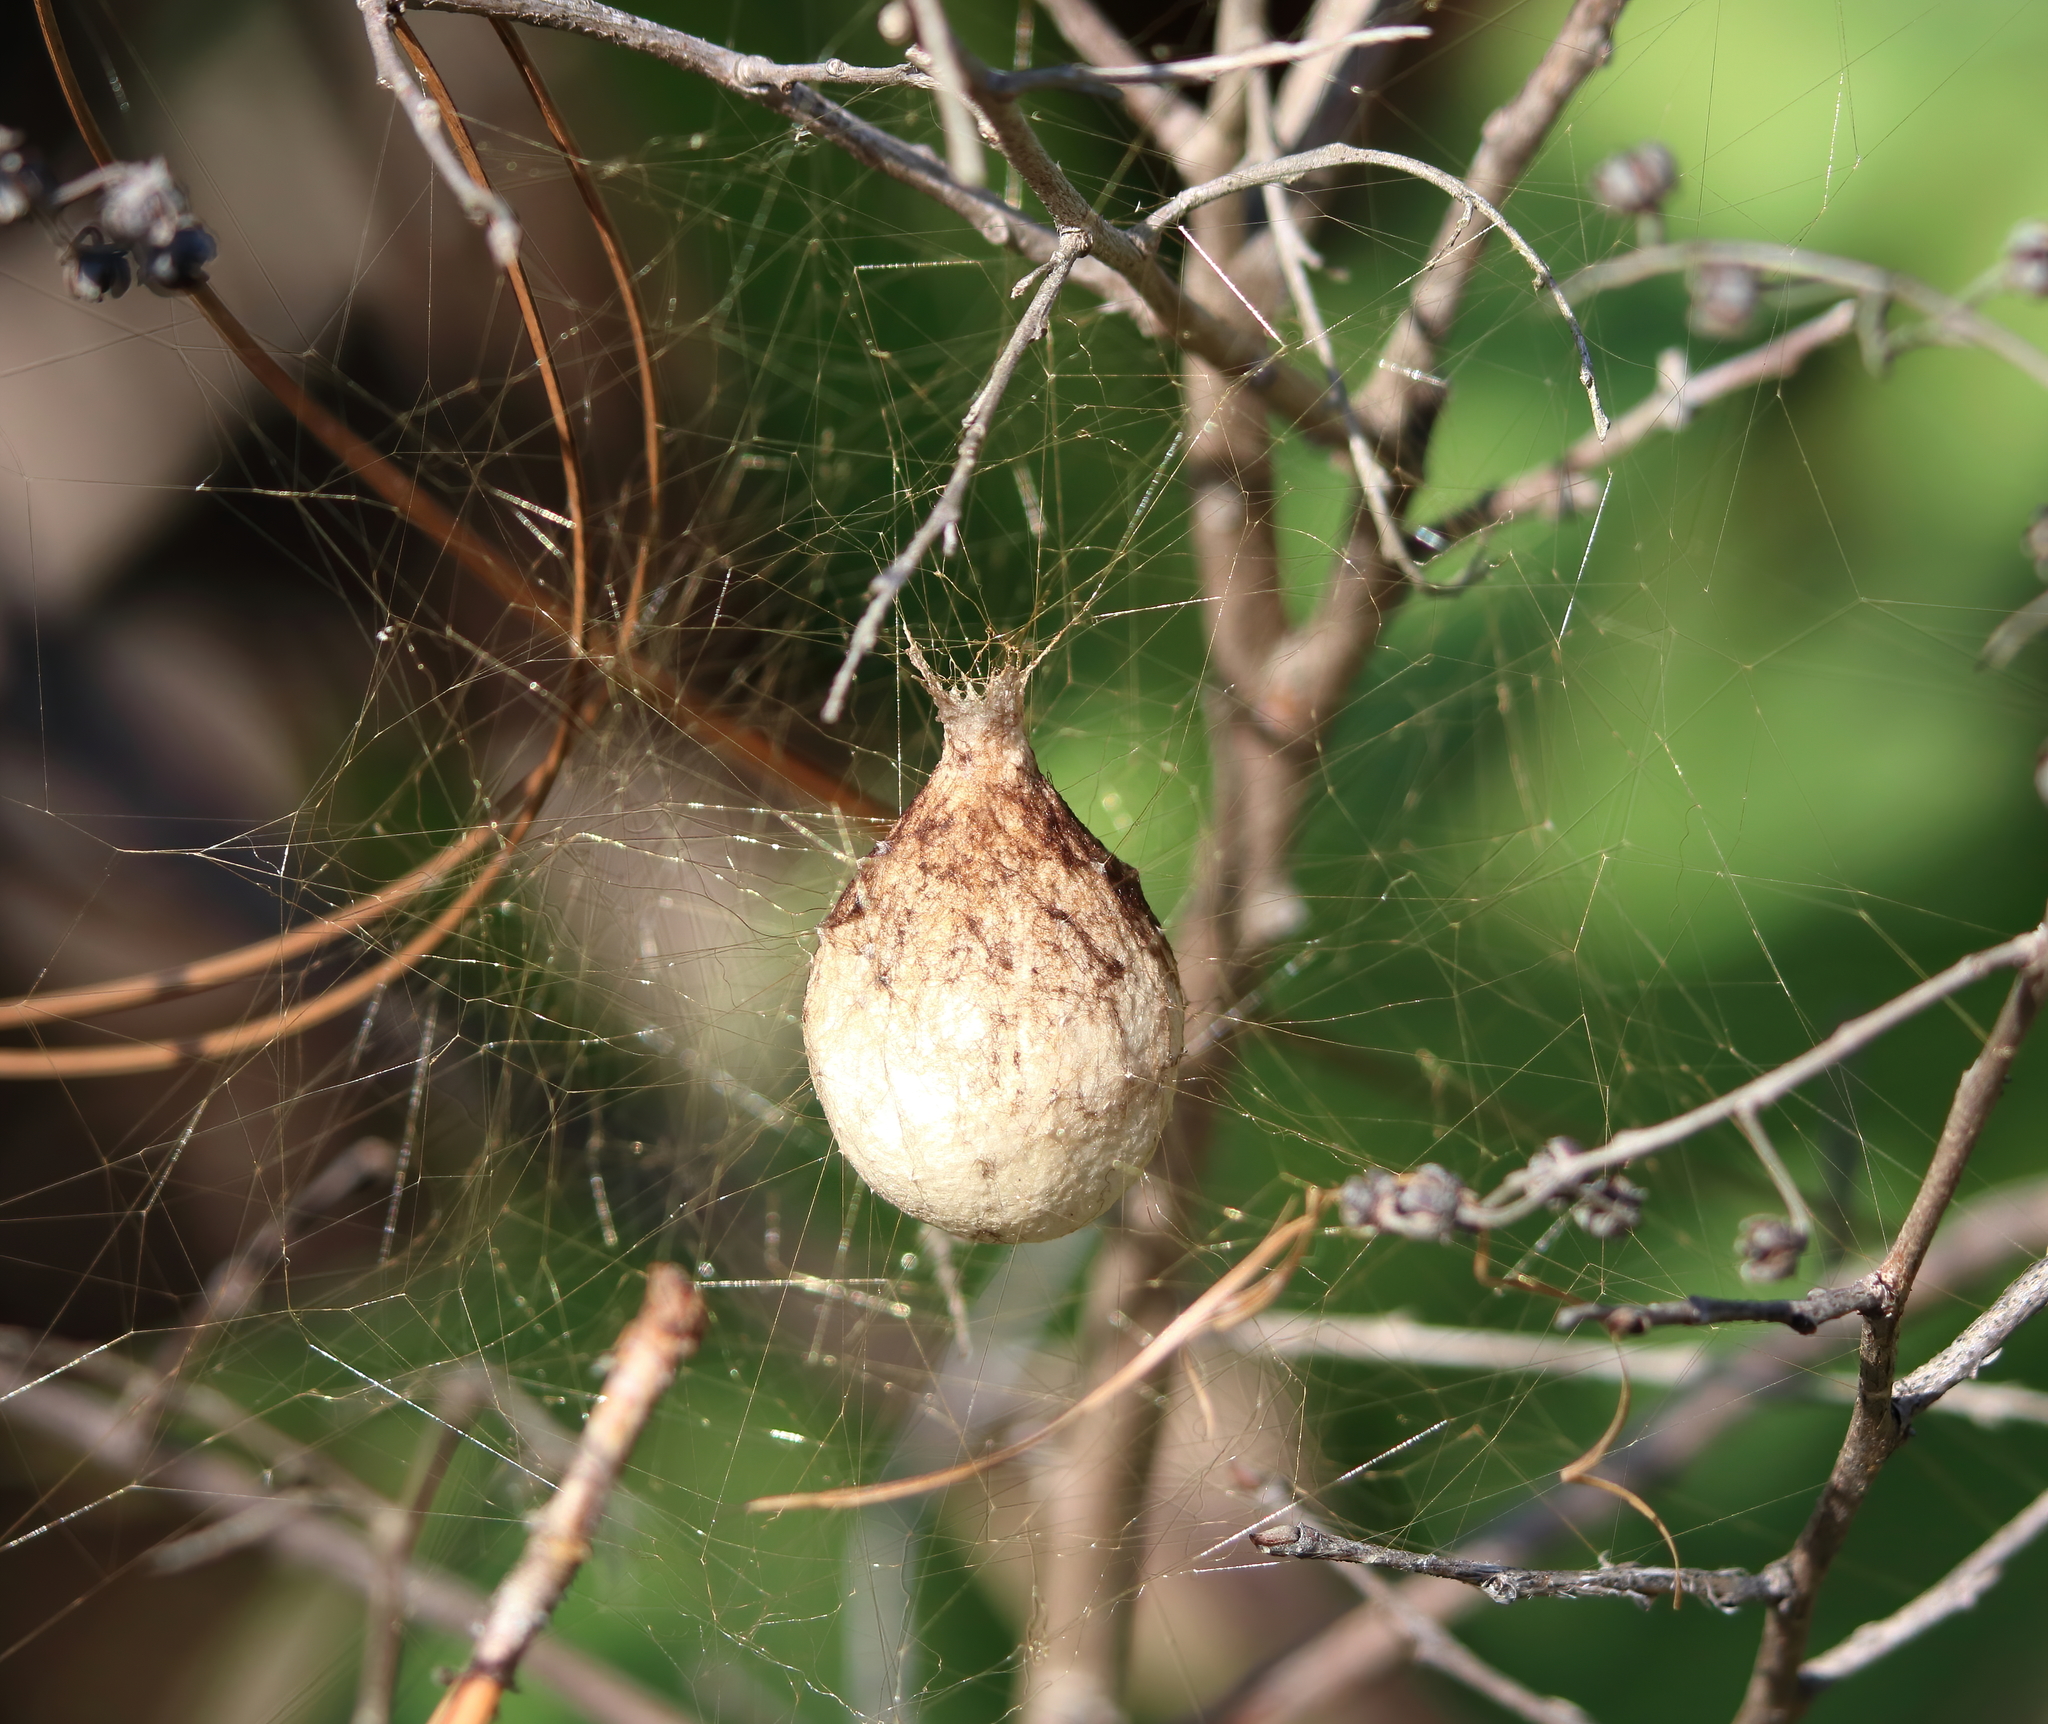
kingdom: Animalia
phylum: Arthropoda
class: Arachnida
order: Araneae
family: Araneidae
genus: Argiope
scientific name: Argiope aurantia
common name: Orb weavers
